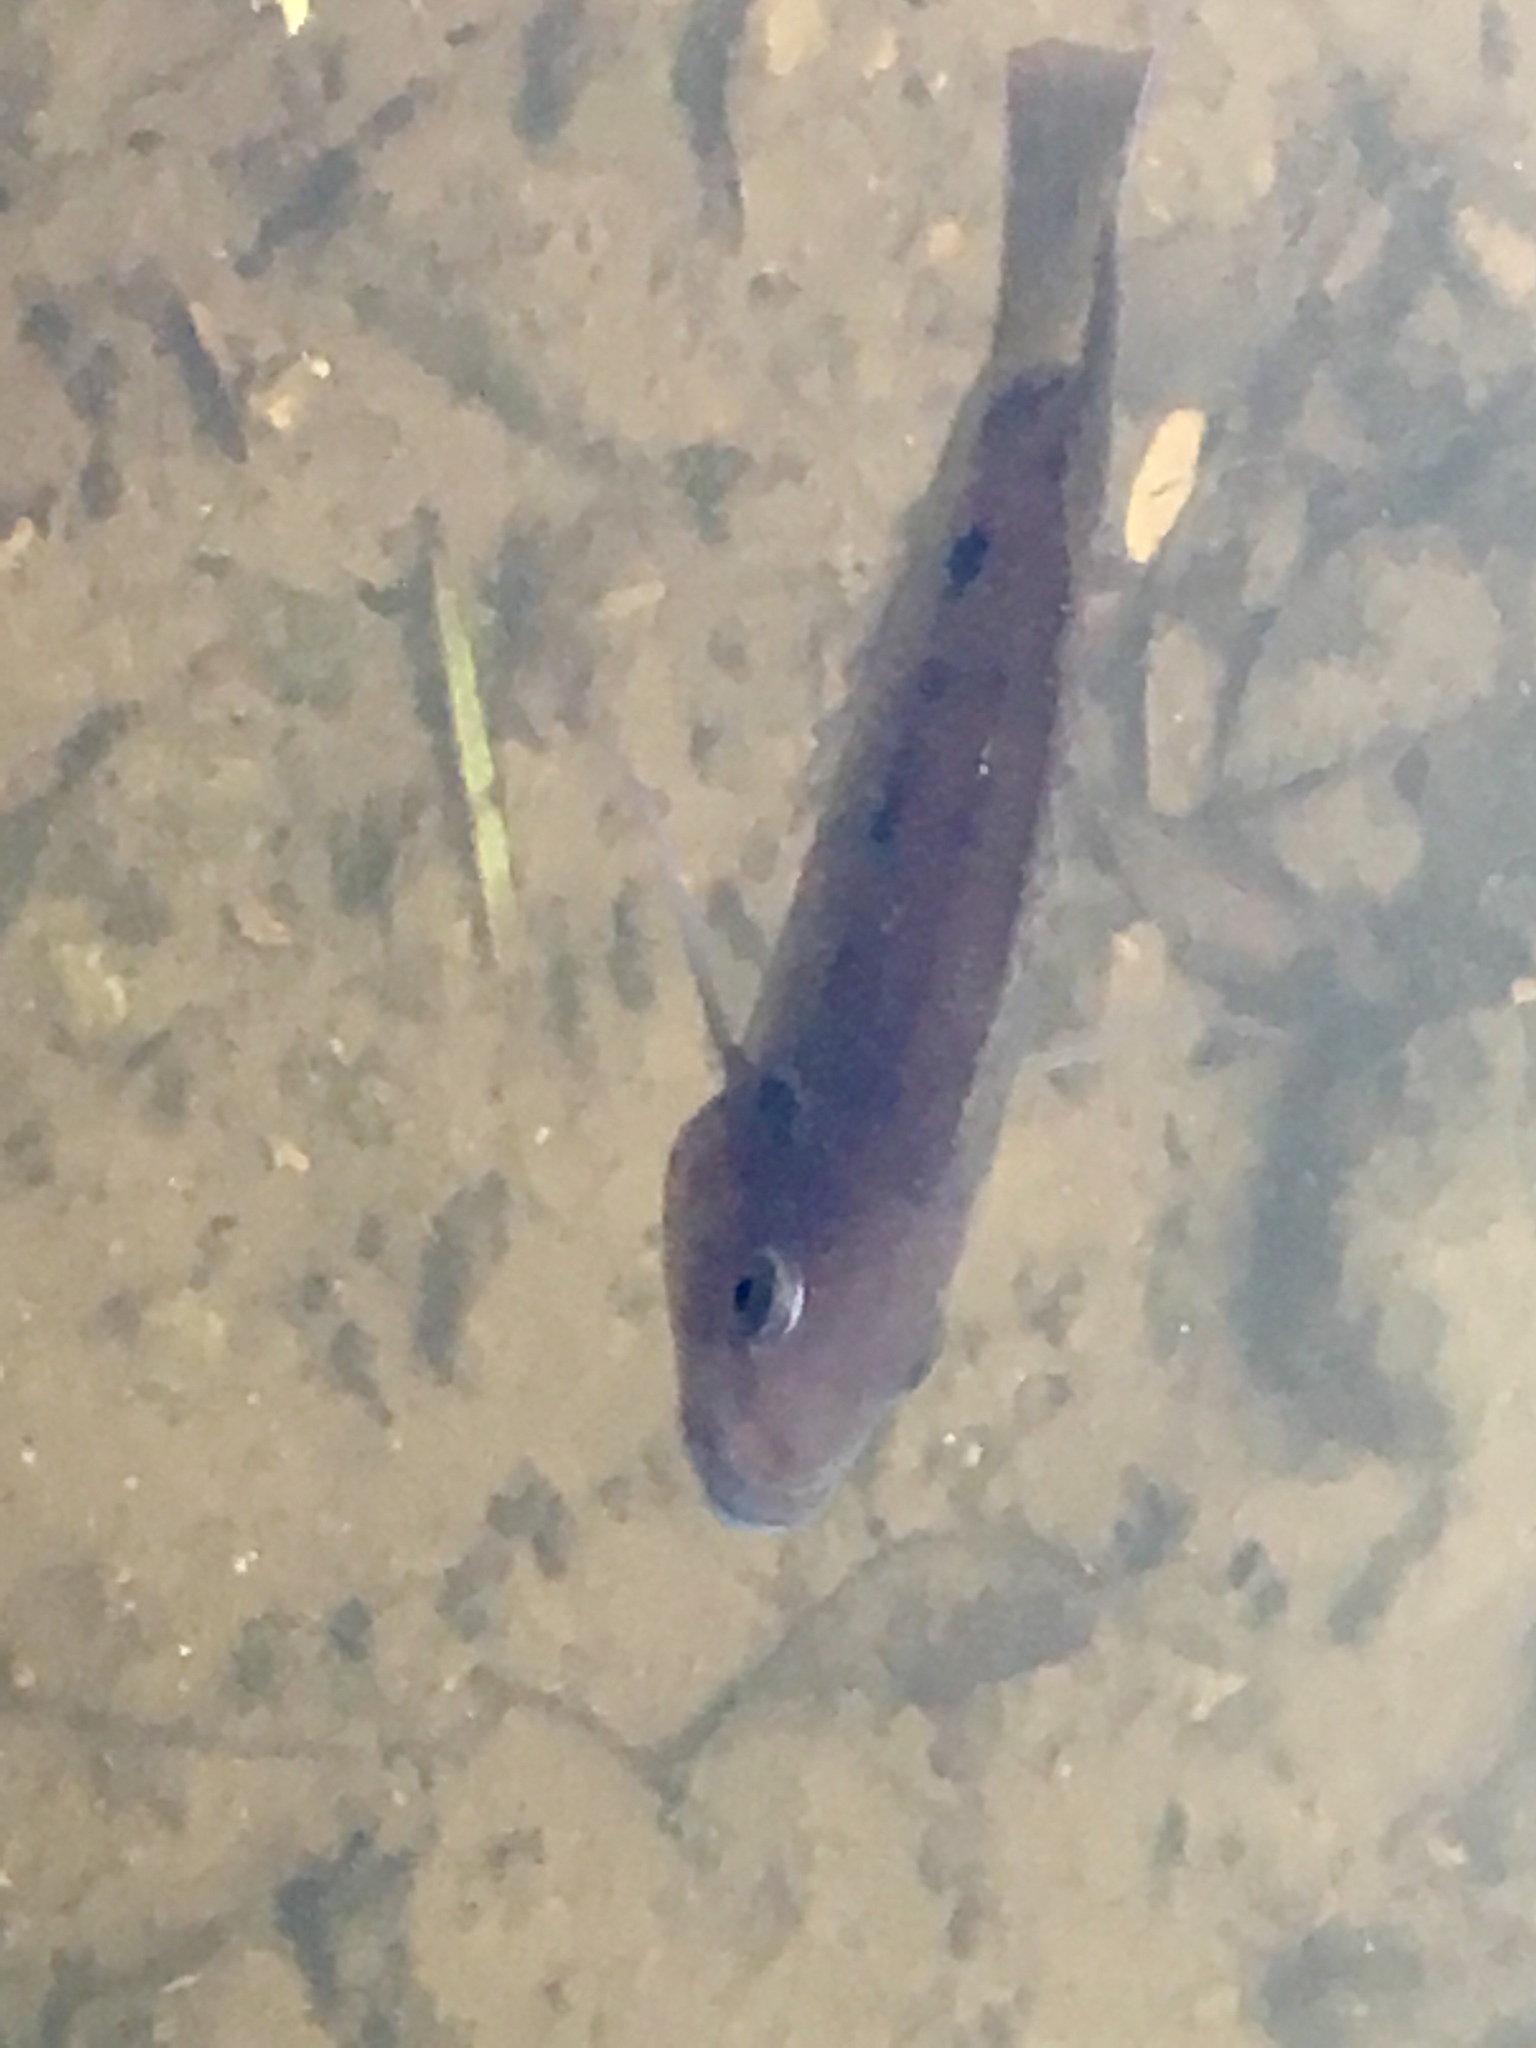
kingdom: Animalia
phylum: Chordata
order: Perciformes
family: Cichlidae
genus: Oreochromis
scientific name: Oreochromis mossambicus
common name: Mozambique tilapia
